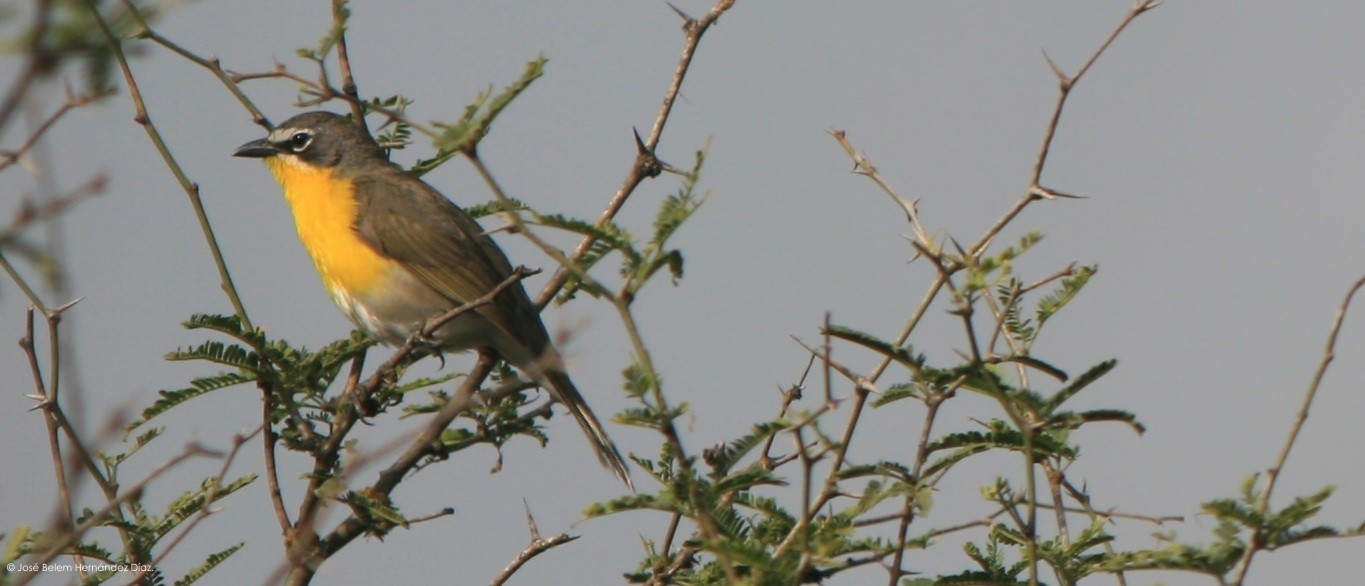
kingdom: Animalia
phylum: Chordata
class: Aves
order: Passeriformes
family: Parulidae
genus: Icteria
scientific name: Icteria virens
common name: Yellow-breasted chat
